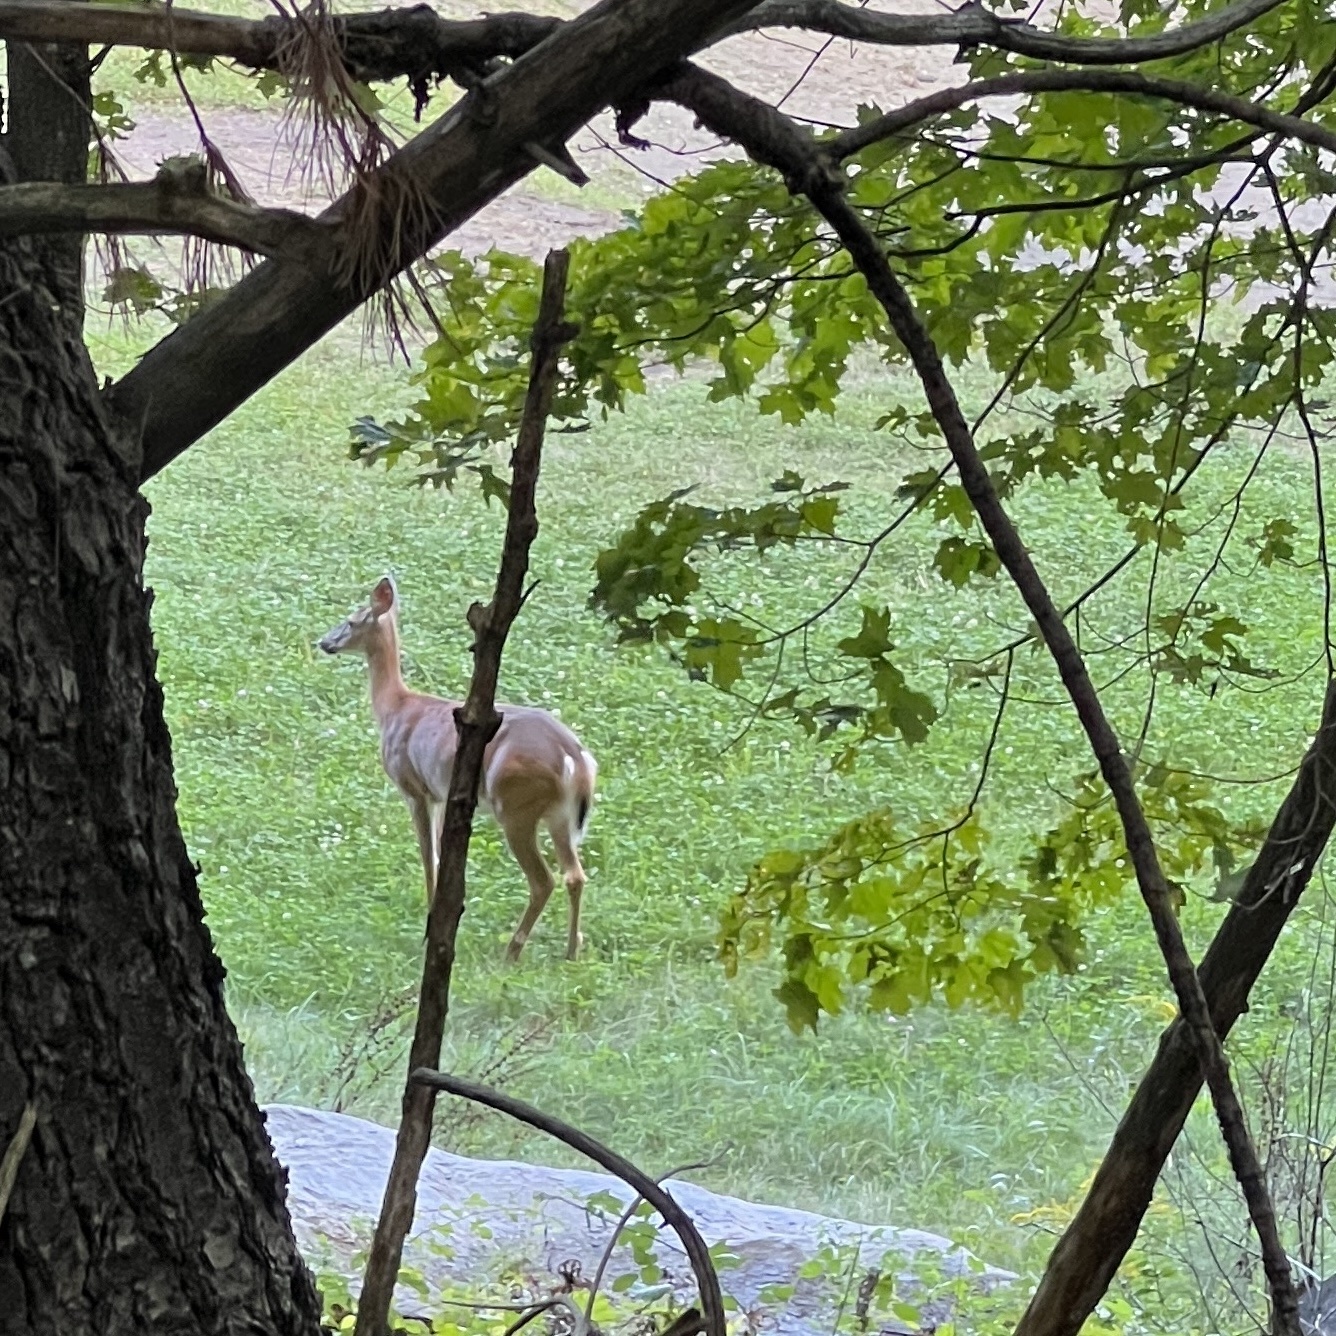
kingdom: Animalia
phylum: Chordata
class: Mammalia
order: Artiodactyla
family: Cervidae
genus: Odocoileus
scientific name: Odocoileus virginianus
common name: White-tailed deer
